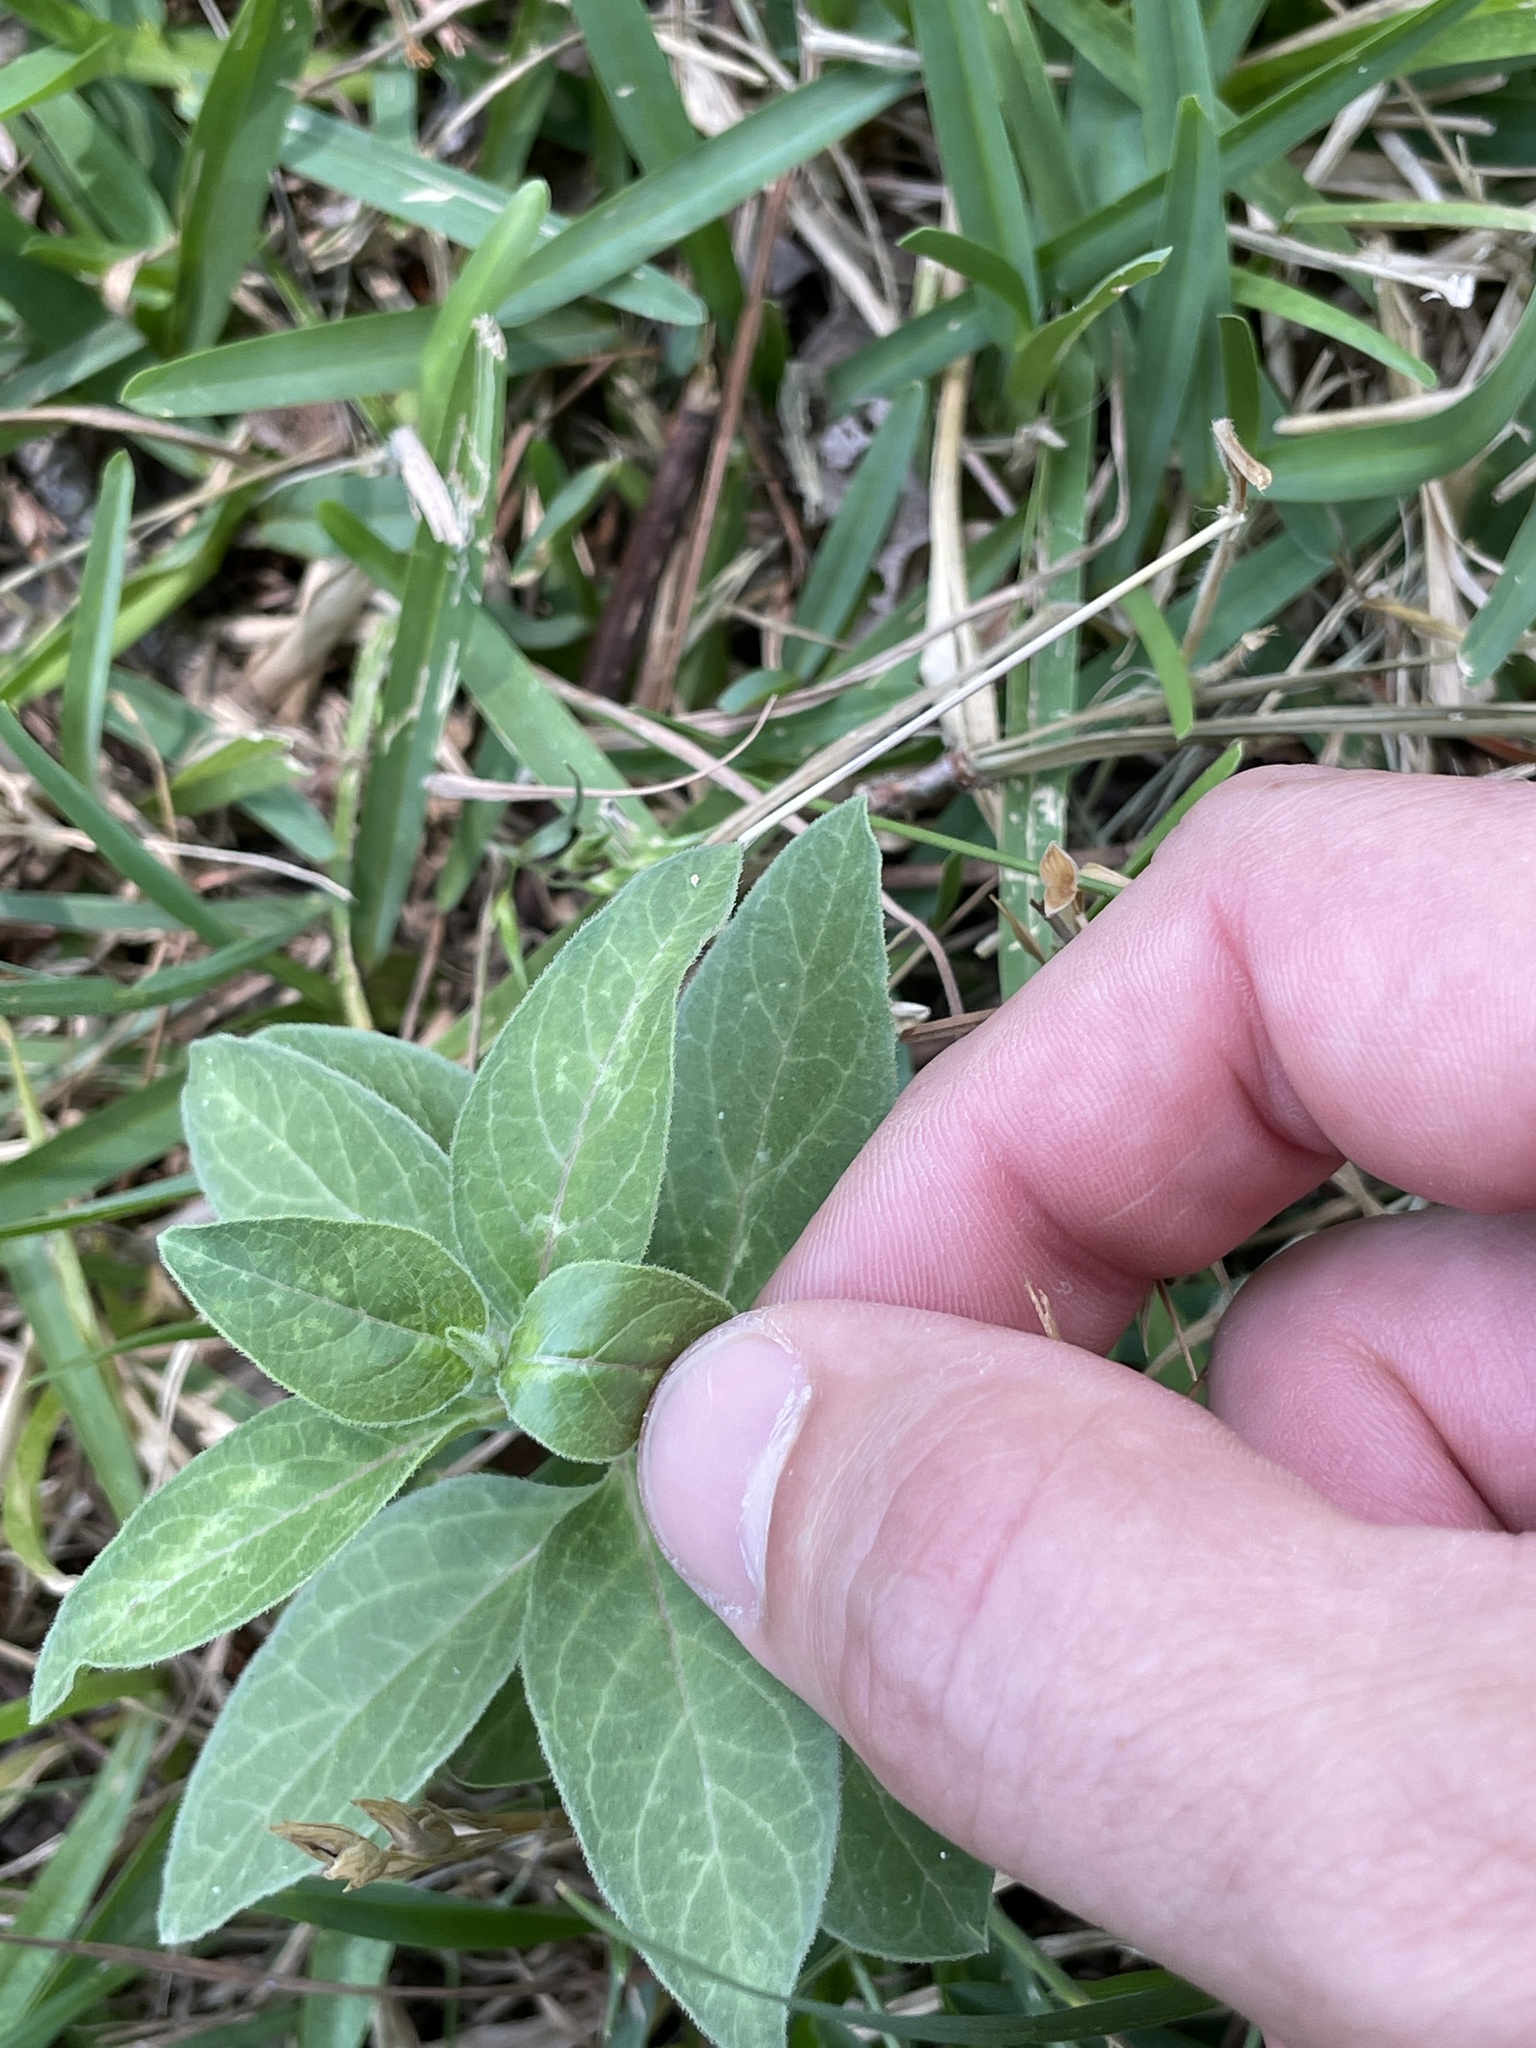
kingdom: Plantae
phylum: Tracheophyta
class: Magnoliopsida
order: Gentianales
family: Apocynaceae
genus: Asclepias
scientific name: Asclepias oenotheroides
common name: Zizotes milkweed
